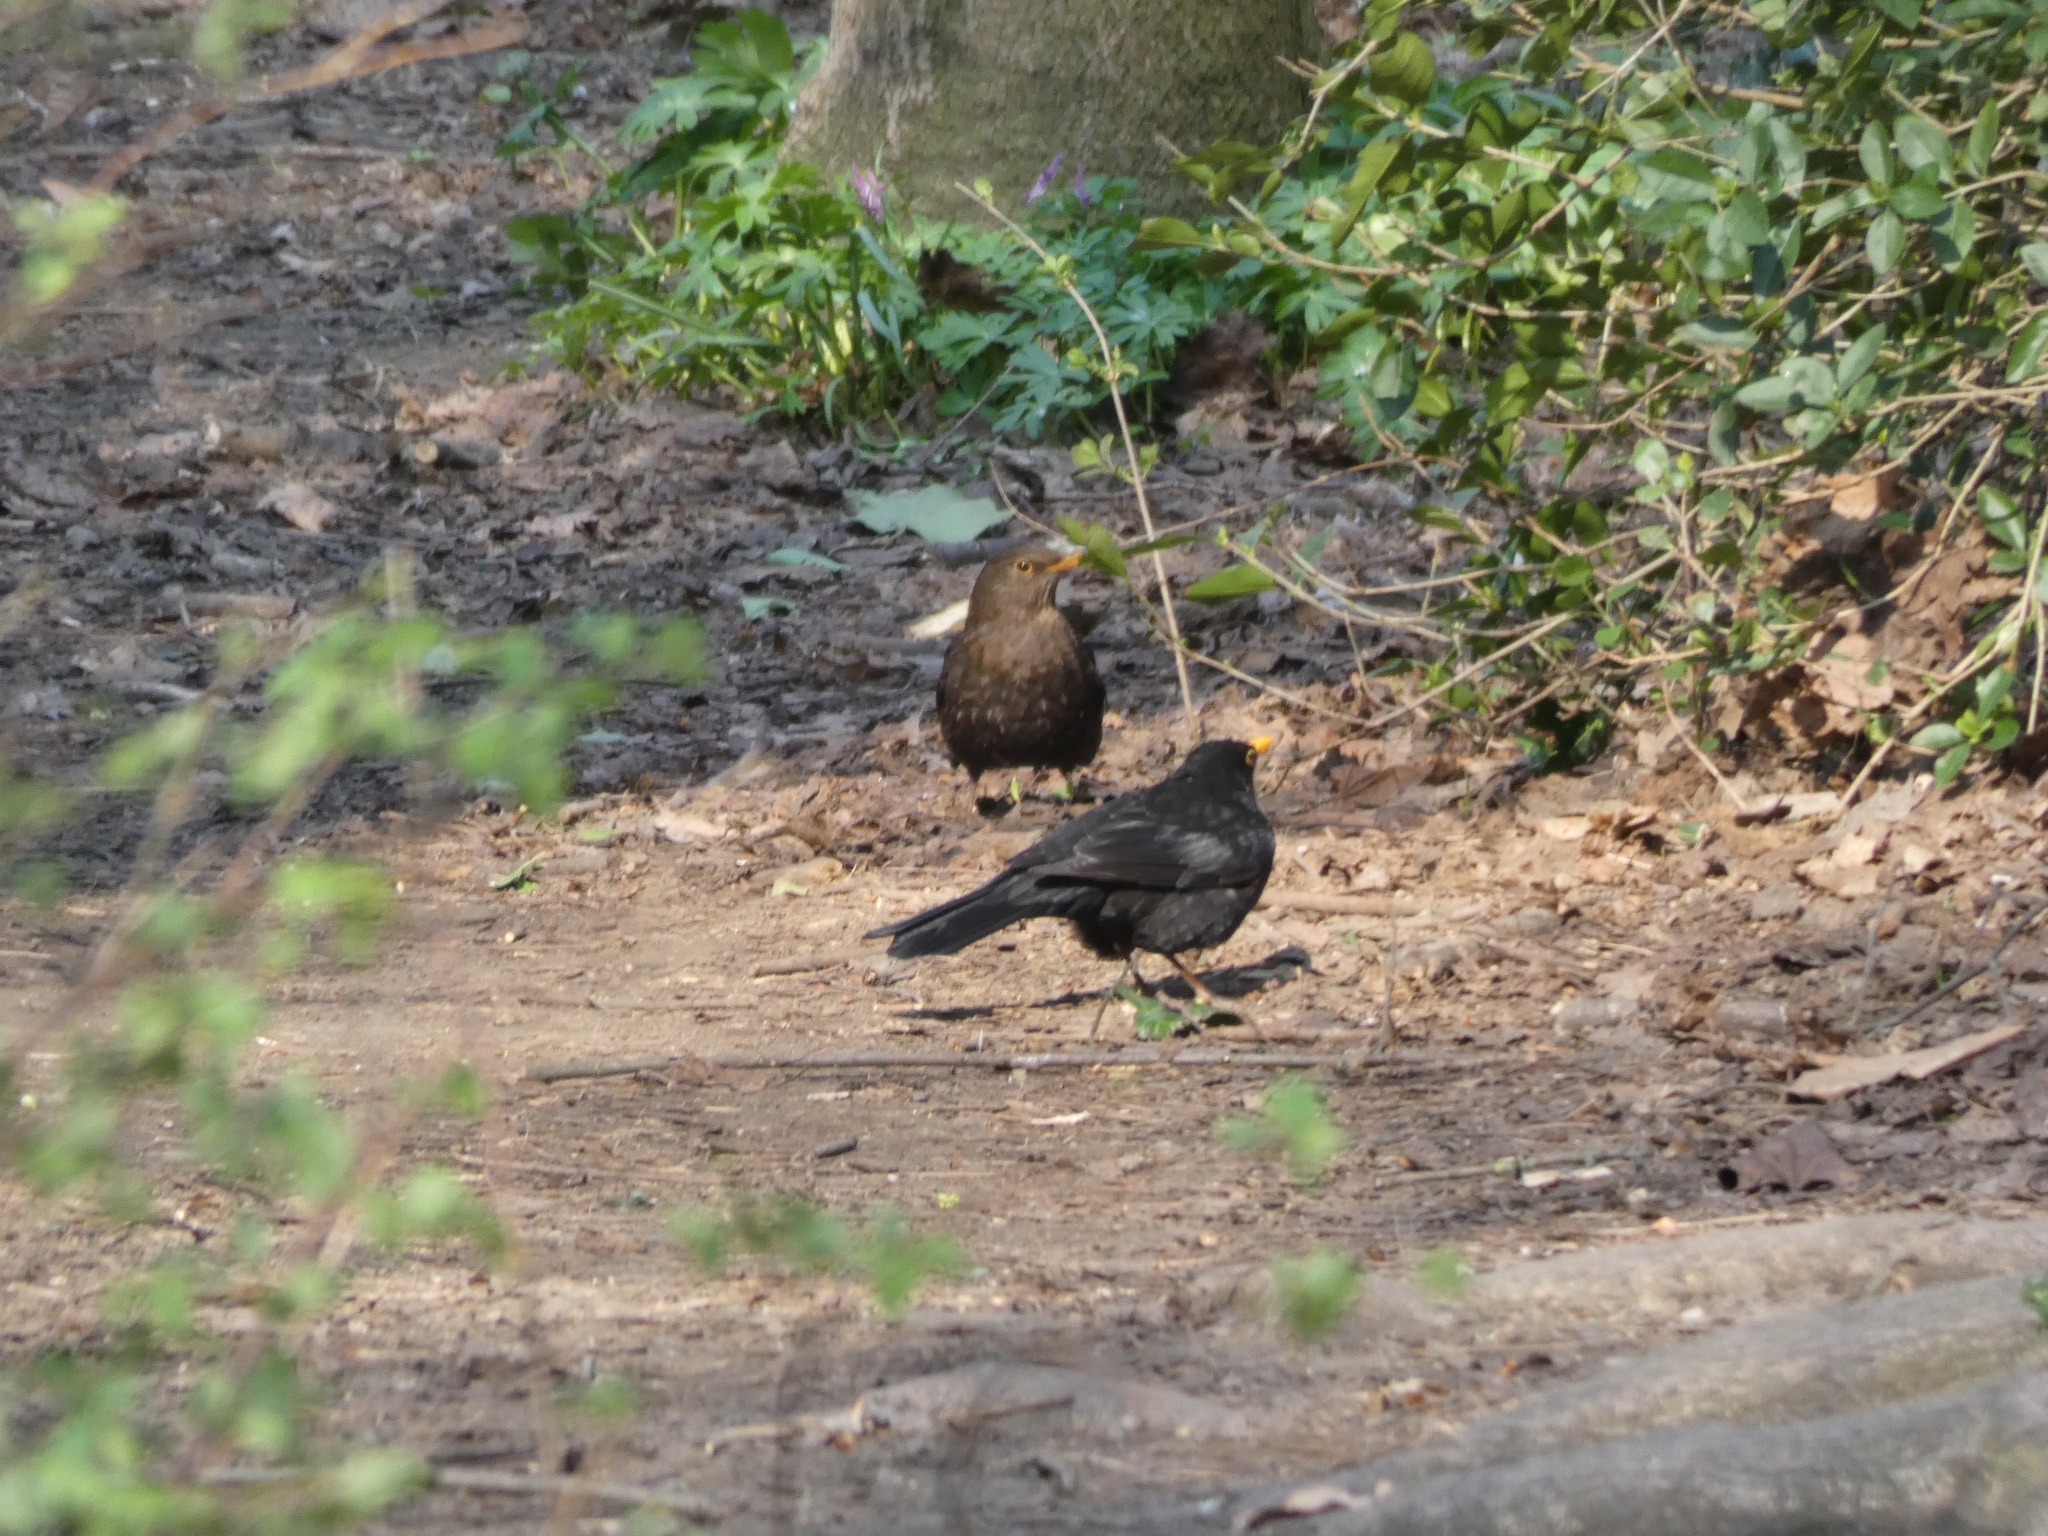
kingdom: Animalia
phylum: Chordata
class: Aves
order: Passeriformes
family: Turdidae
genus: Turdus
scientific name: Turdus merula
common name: Common blackbird
